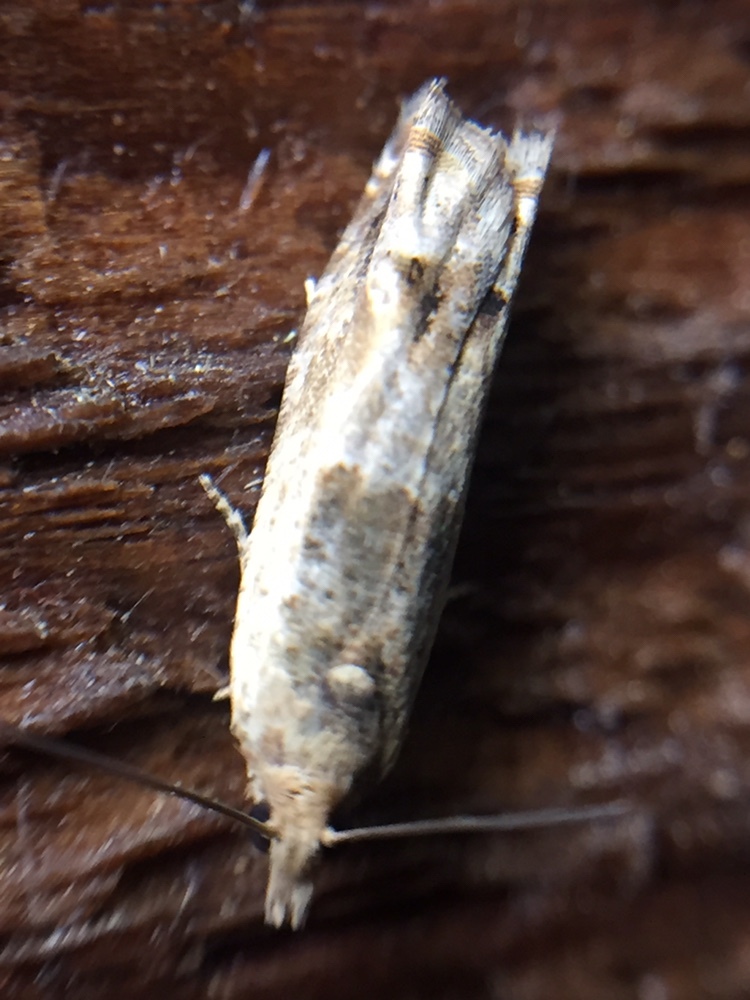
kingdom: Animalia
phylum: Arthropoda
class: Insecta
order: Lepidoptera
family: Tortricidae
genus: Crocidosema
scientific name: Crocidosema plebejana
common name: Southern bell
